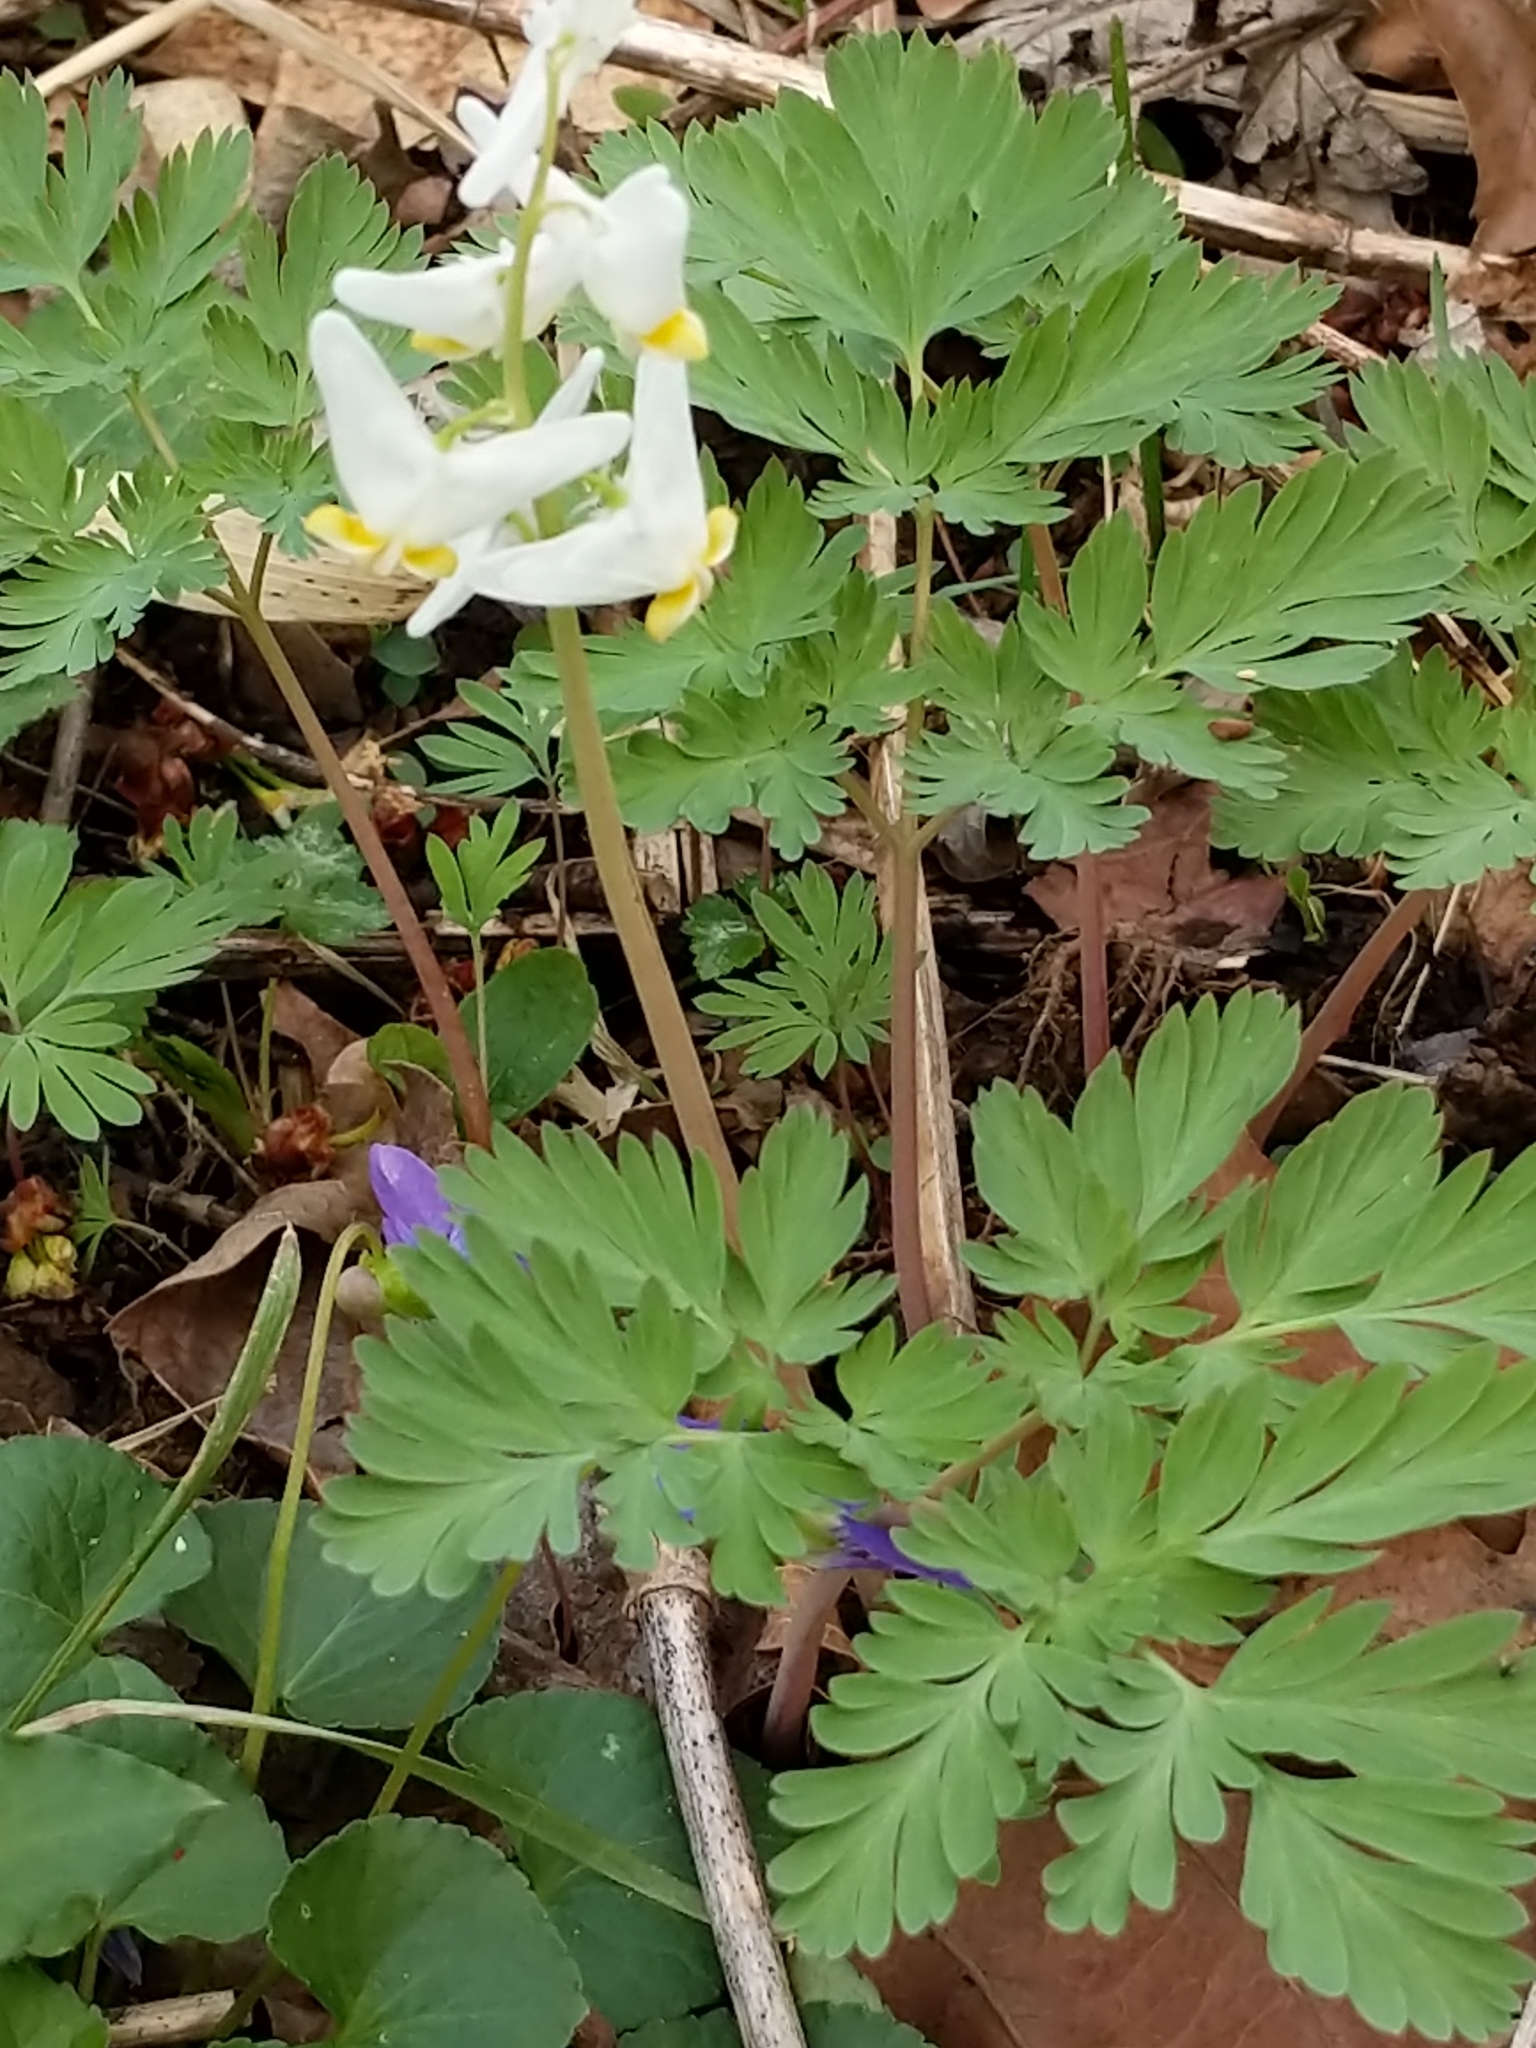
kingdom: Plantae
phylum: Tracheophyta
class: Magnoliopsida
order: Ranunculales
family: Papaveraceae
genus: Dicentra
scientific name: Dicentra cucullaria
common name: Dutchman's breeches
